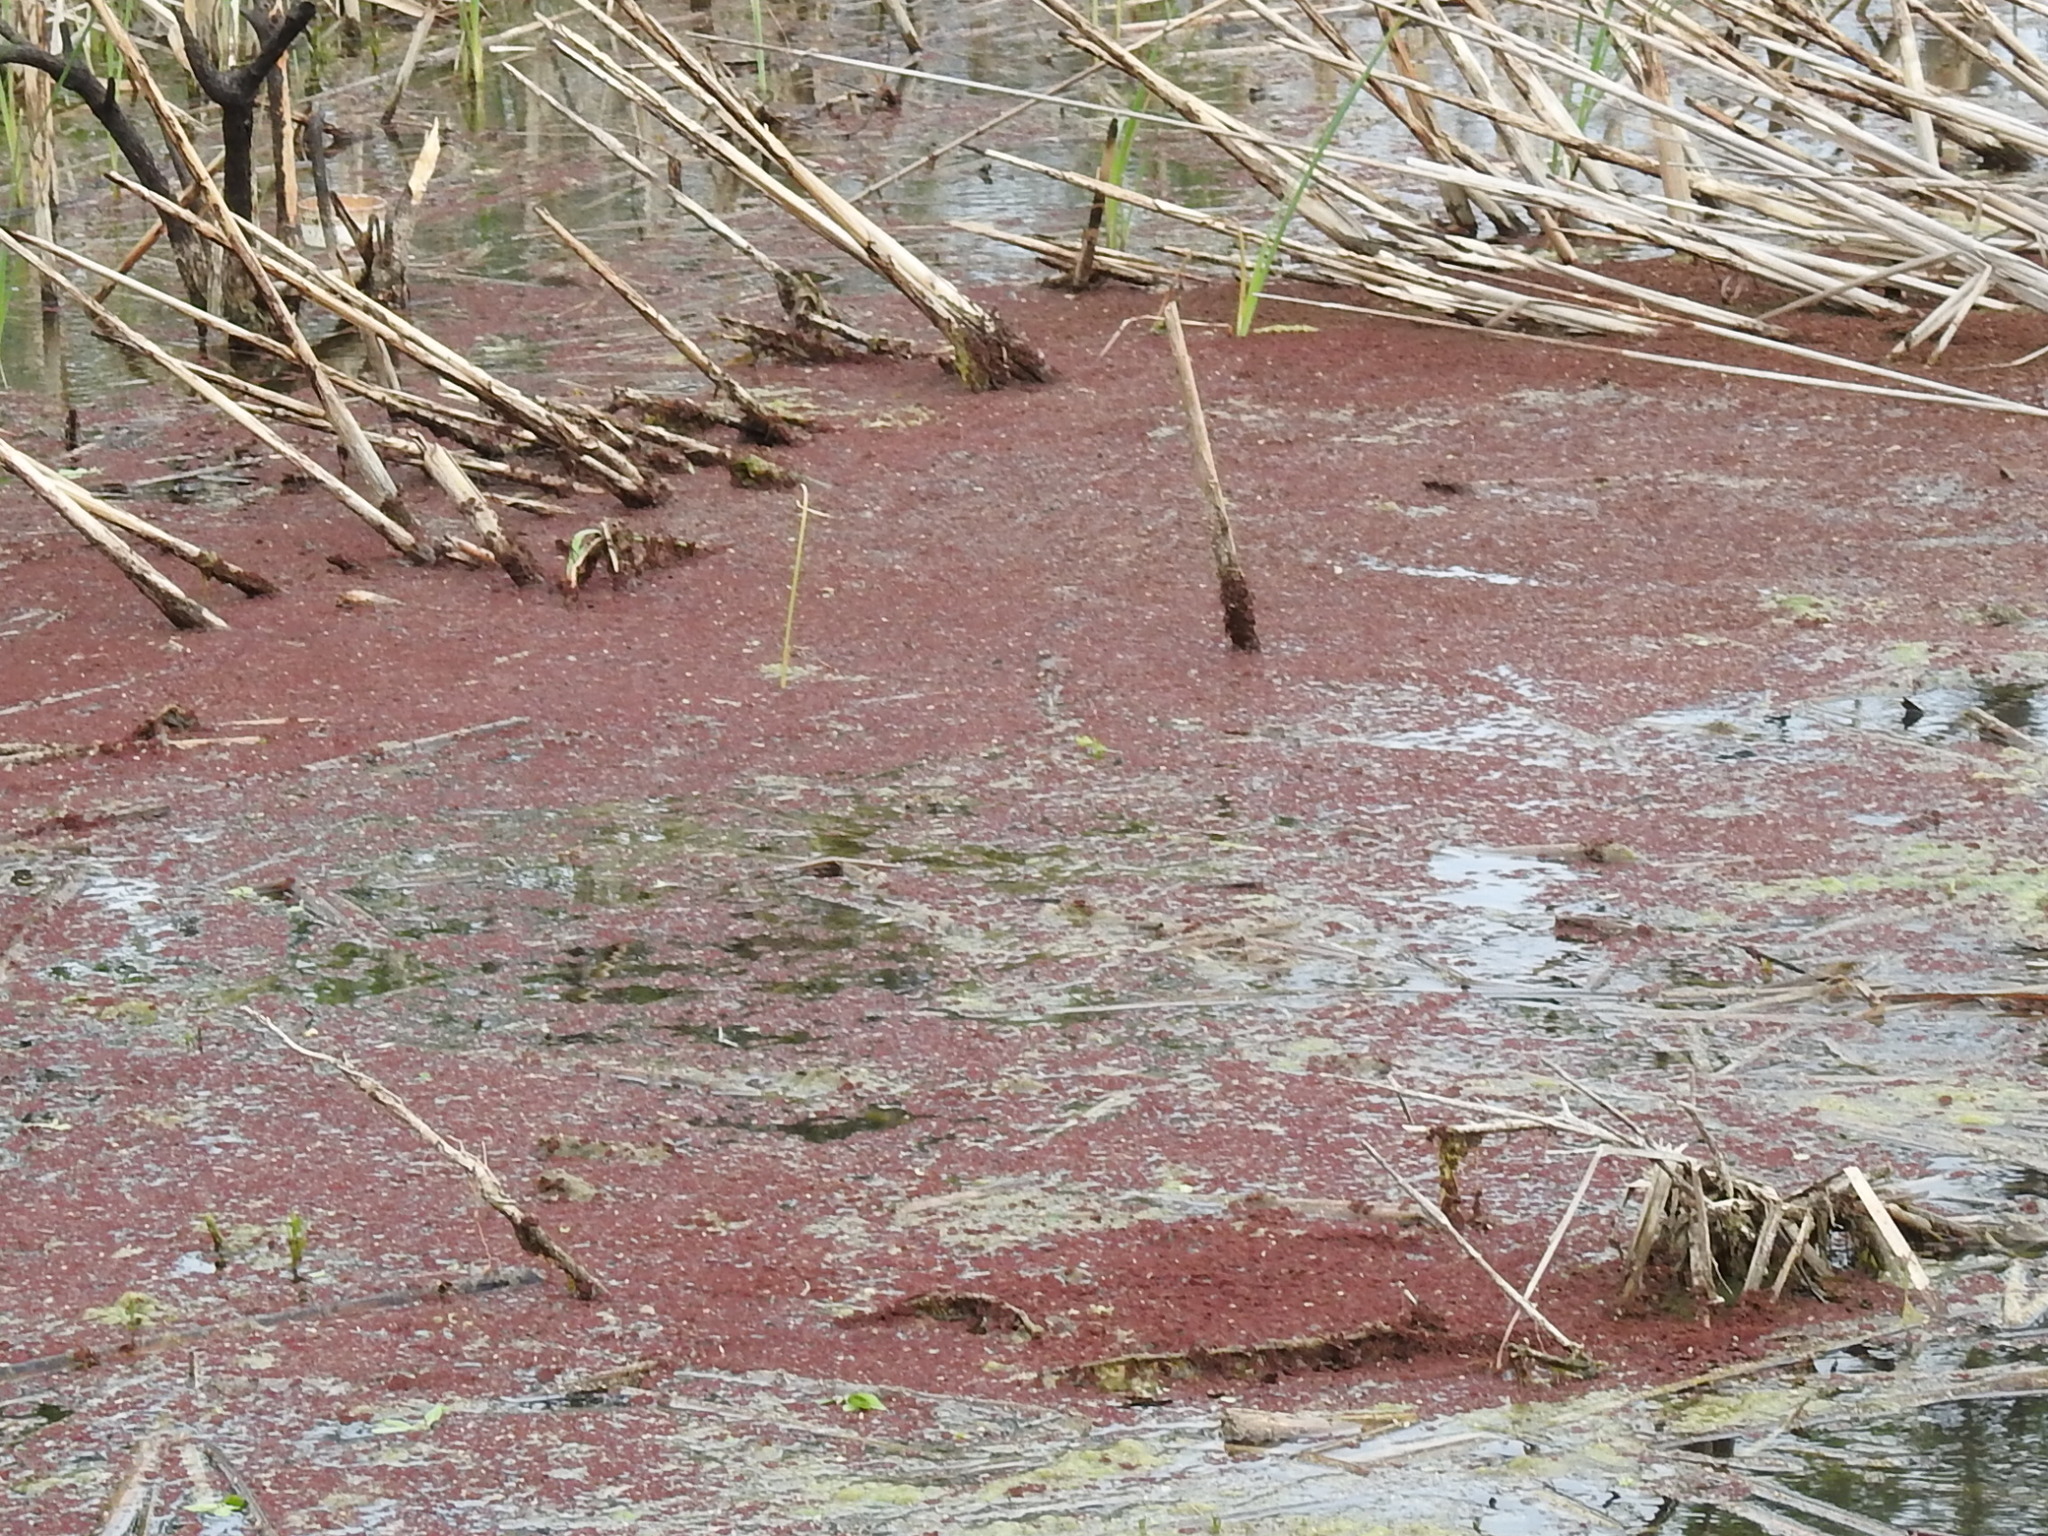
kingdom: Plantae
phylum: Tracheophyta
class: Polypodiopsida
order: Salviniales
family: Salviniaceae
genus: Azolla
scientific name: Azolla caroliniana
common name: Carolina mosquitofern
